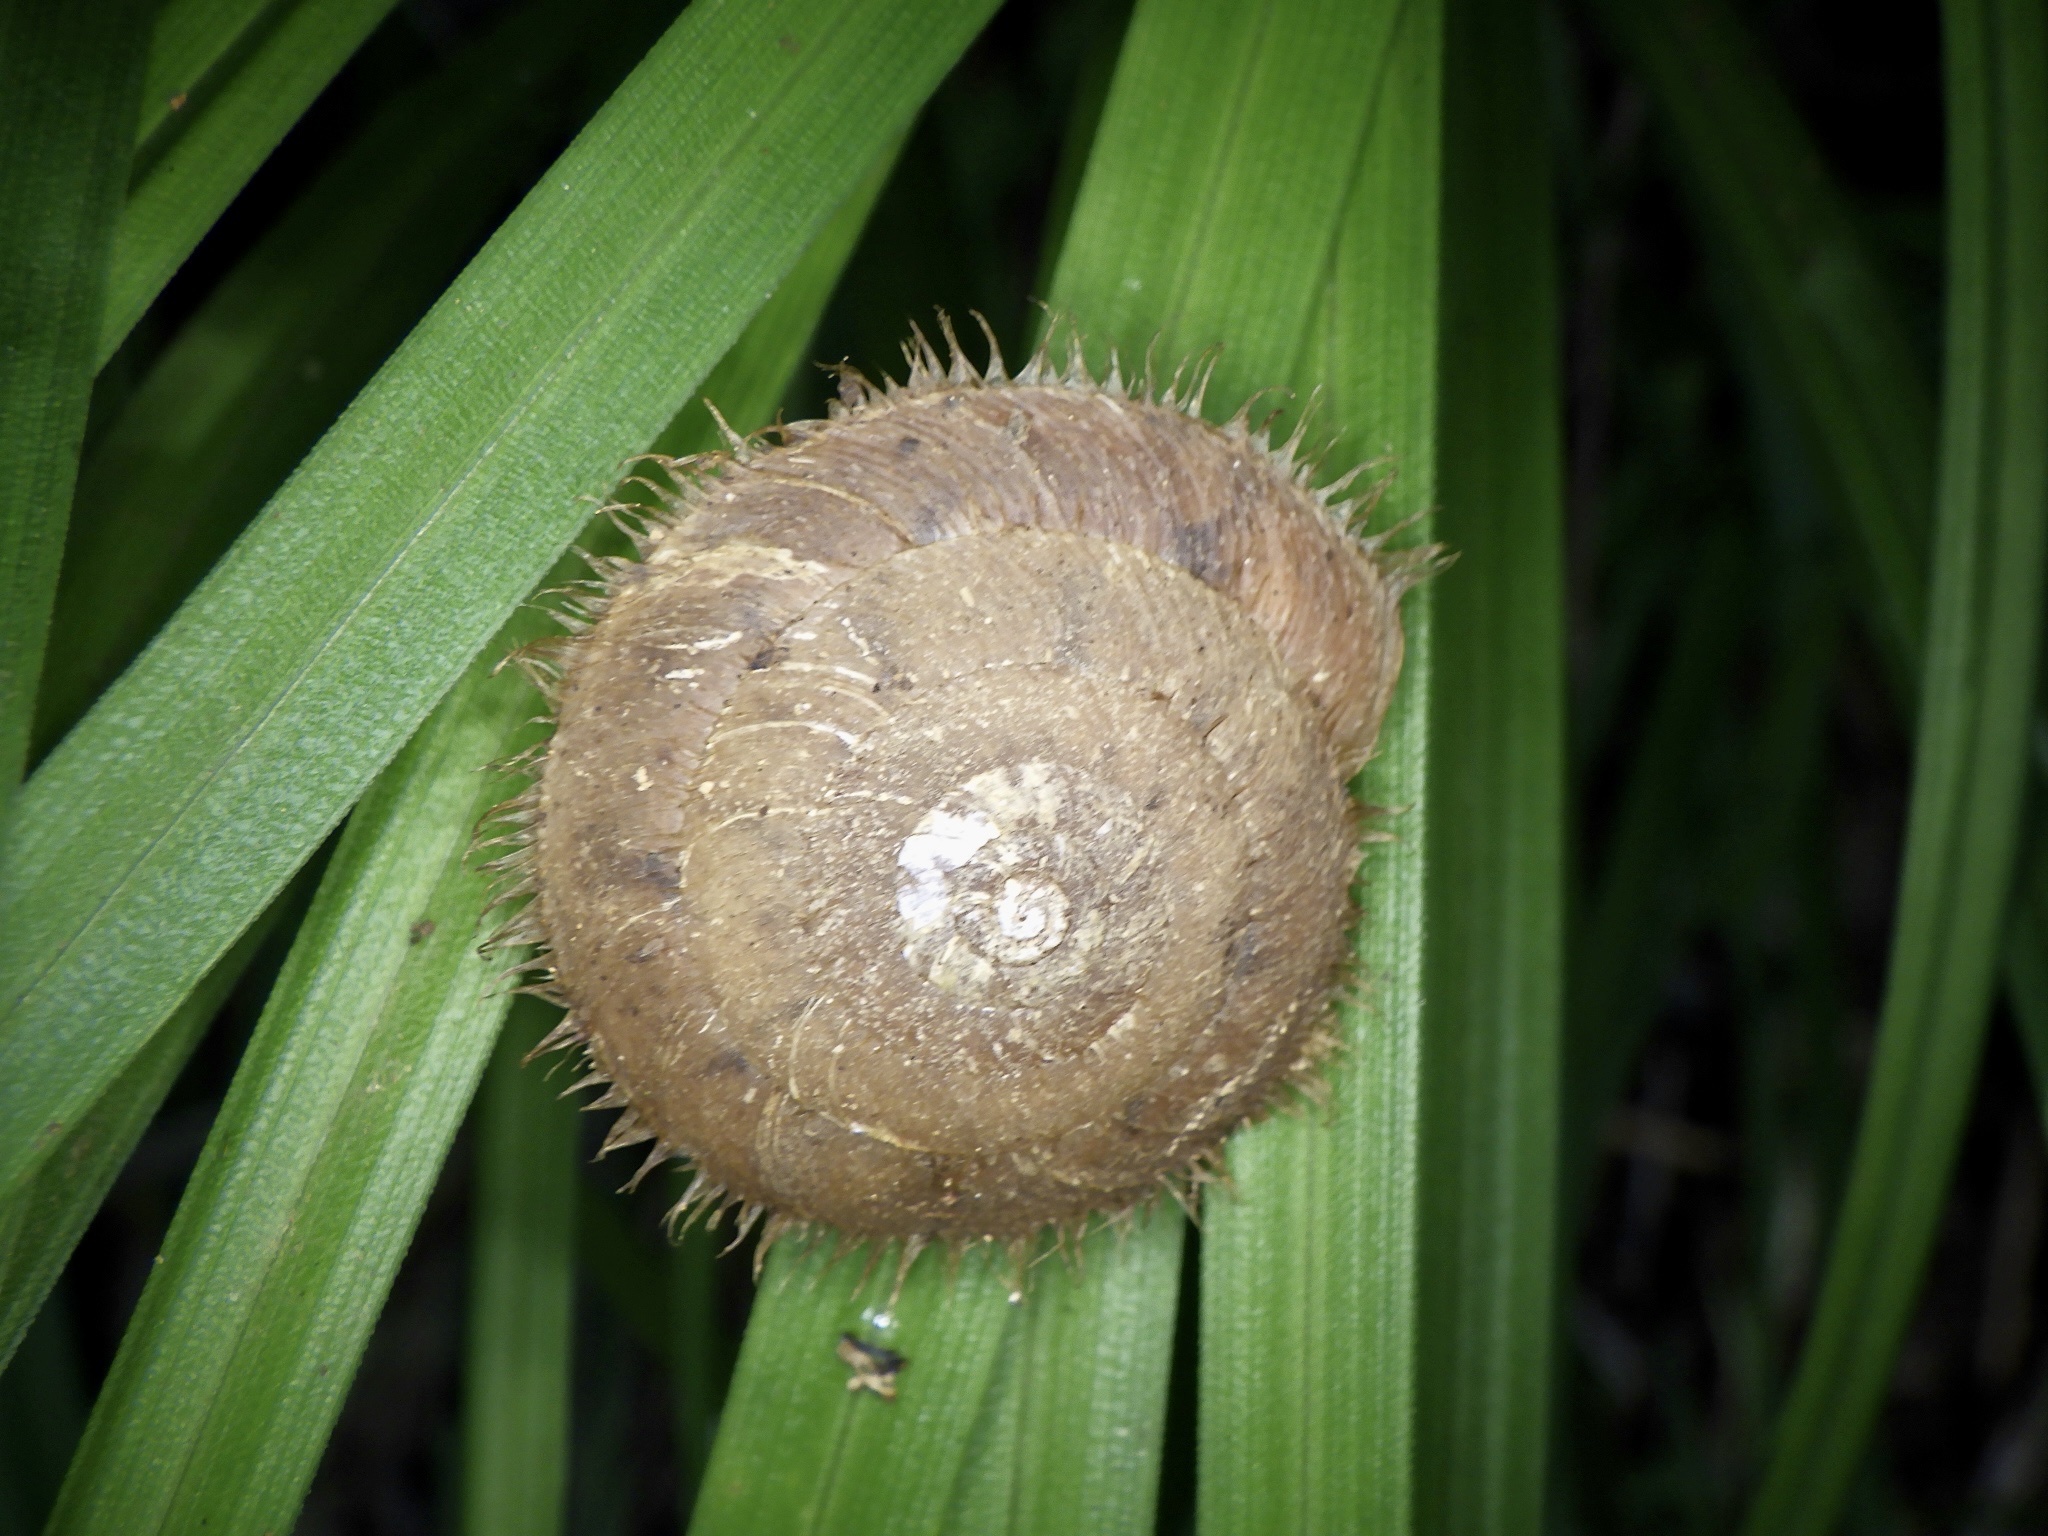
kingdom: Animalia
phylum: Mollusca
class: Gastropoda
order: Stylommatophora
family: Camaenidae
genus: Plectotropis
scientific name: Plectotropis vulgivaga
